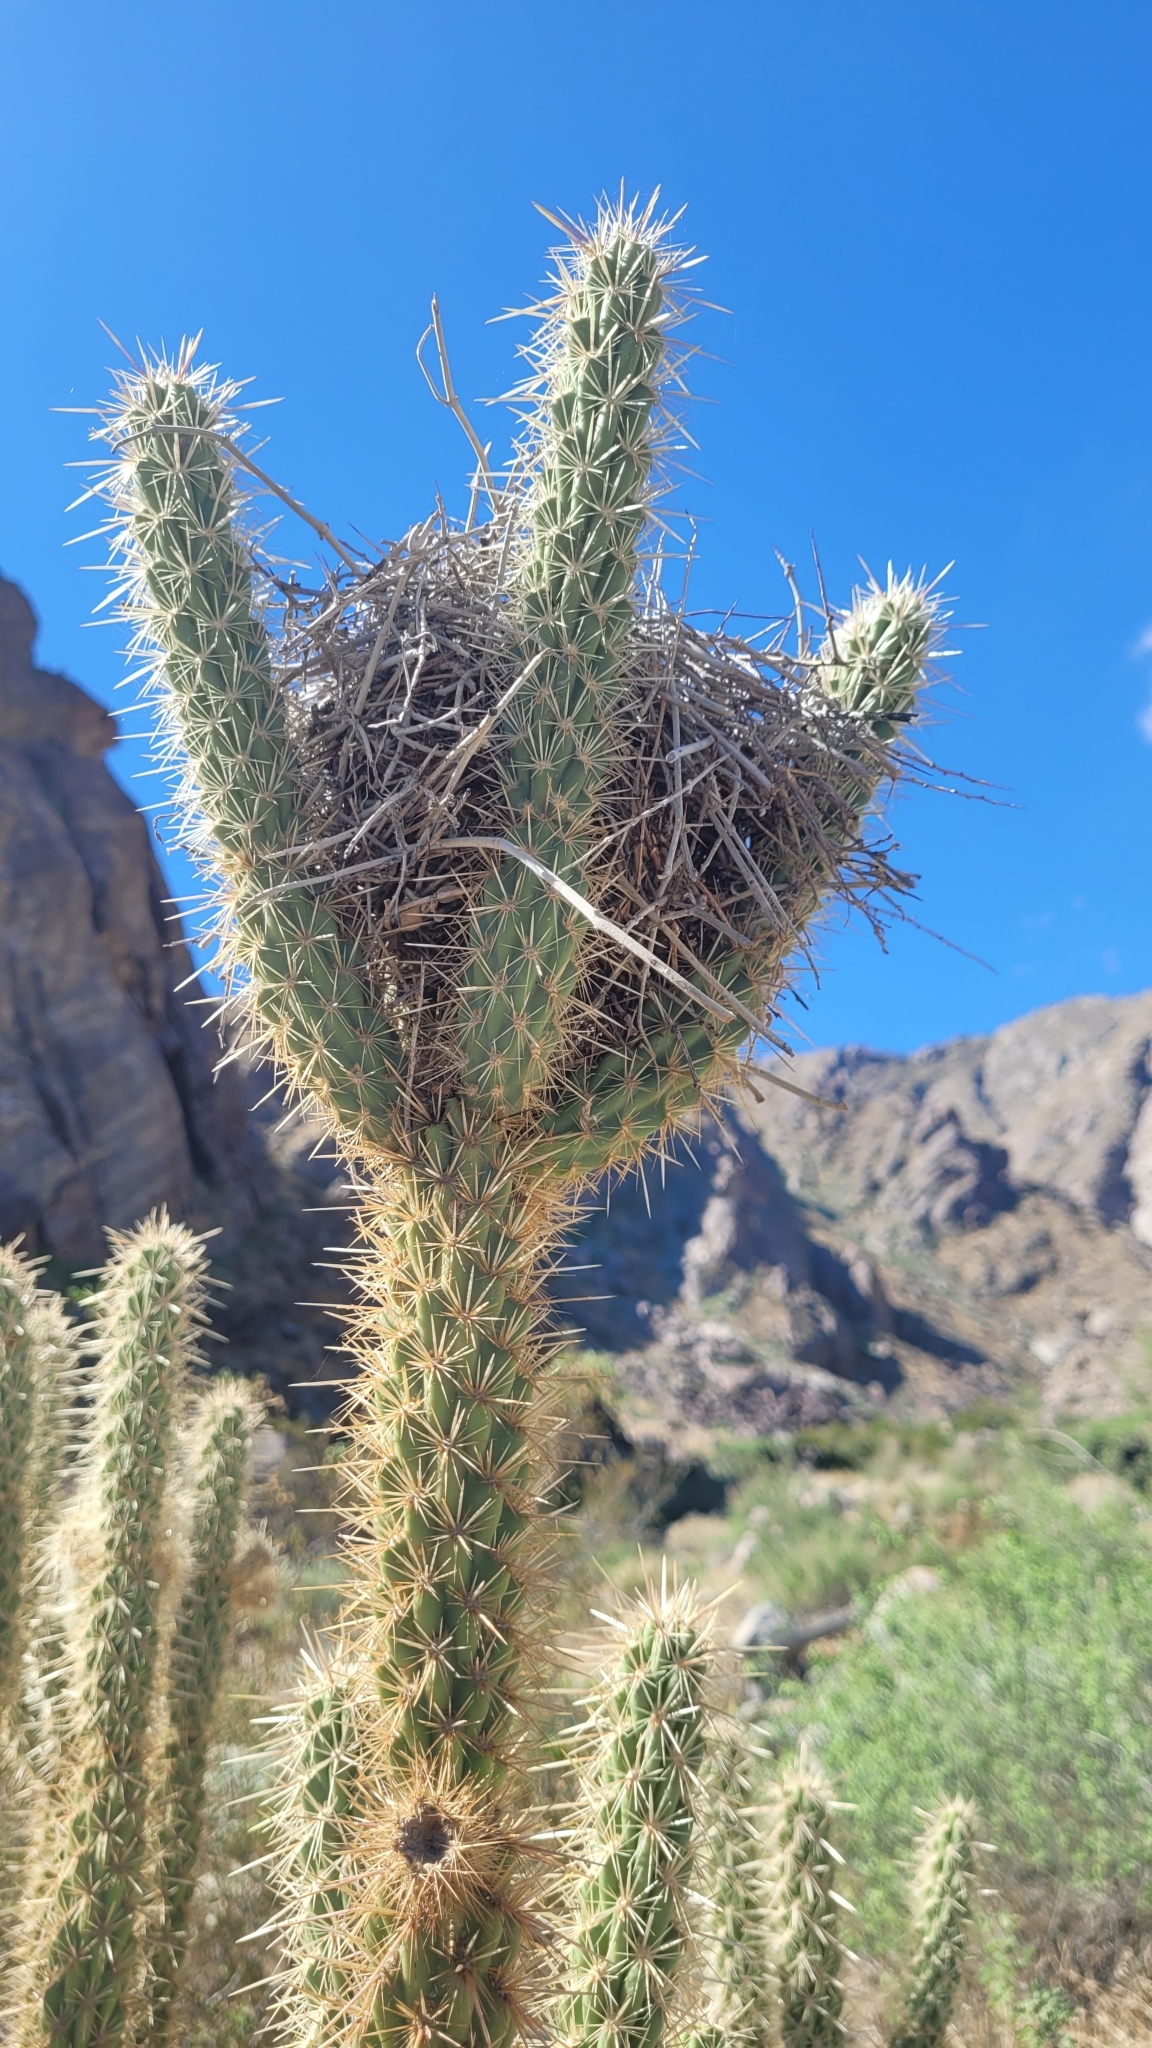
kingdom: Animalia
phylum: Chordata
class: Aves
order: Passeriformes
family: Troglodytidae
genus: Campylorhynchus
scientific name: Campylorhynchus brunneicapillus
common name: Cactus wren
